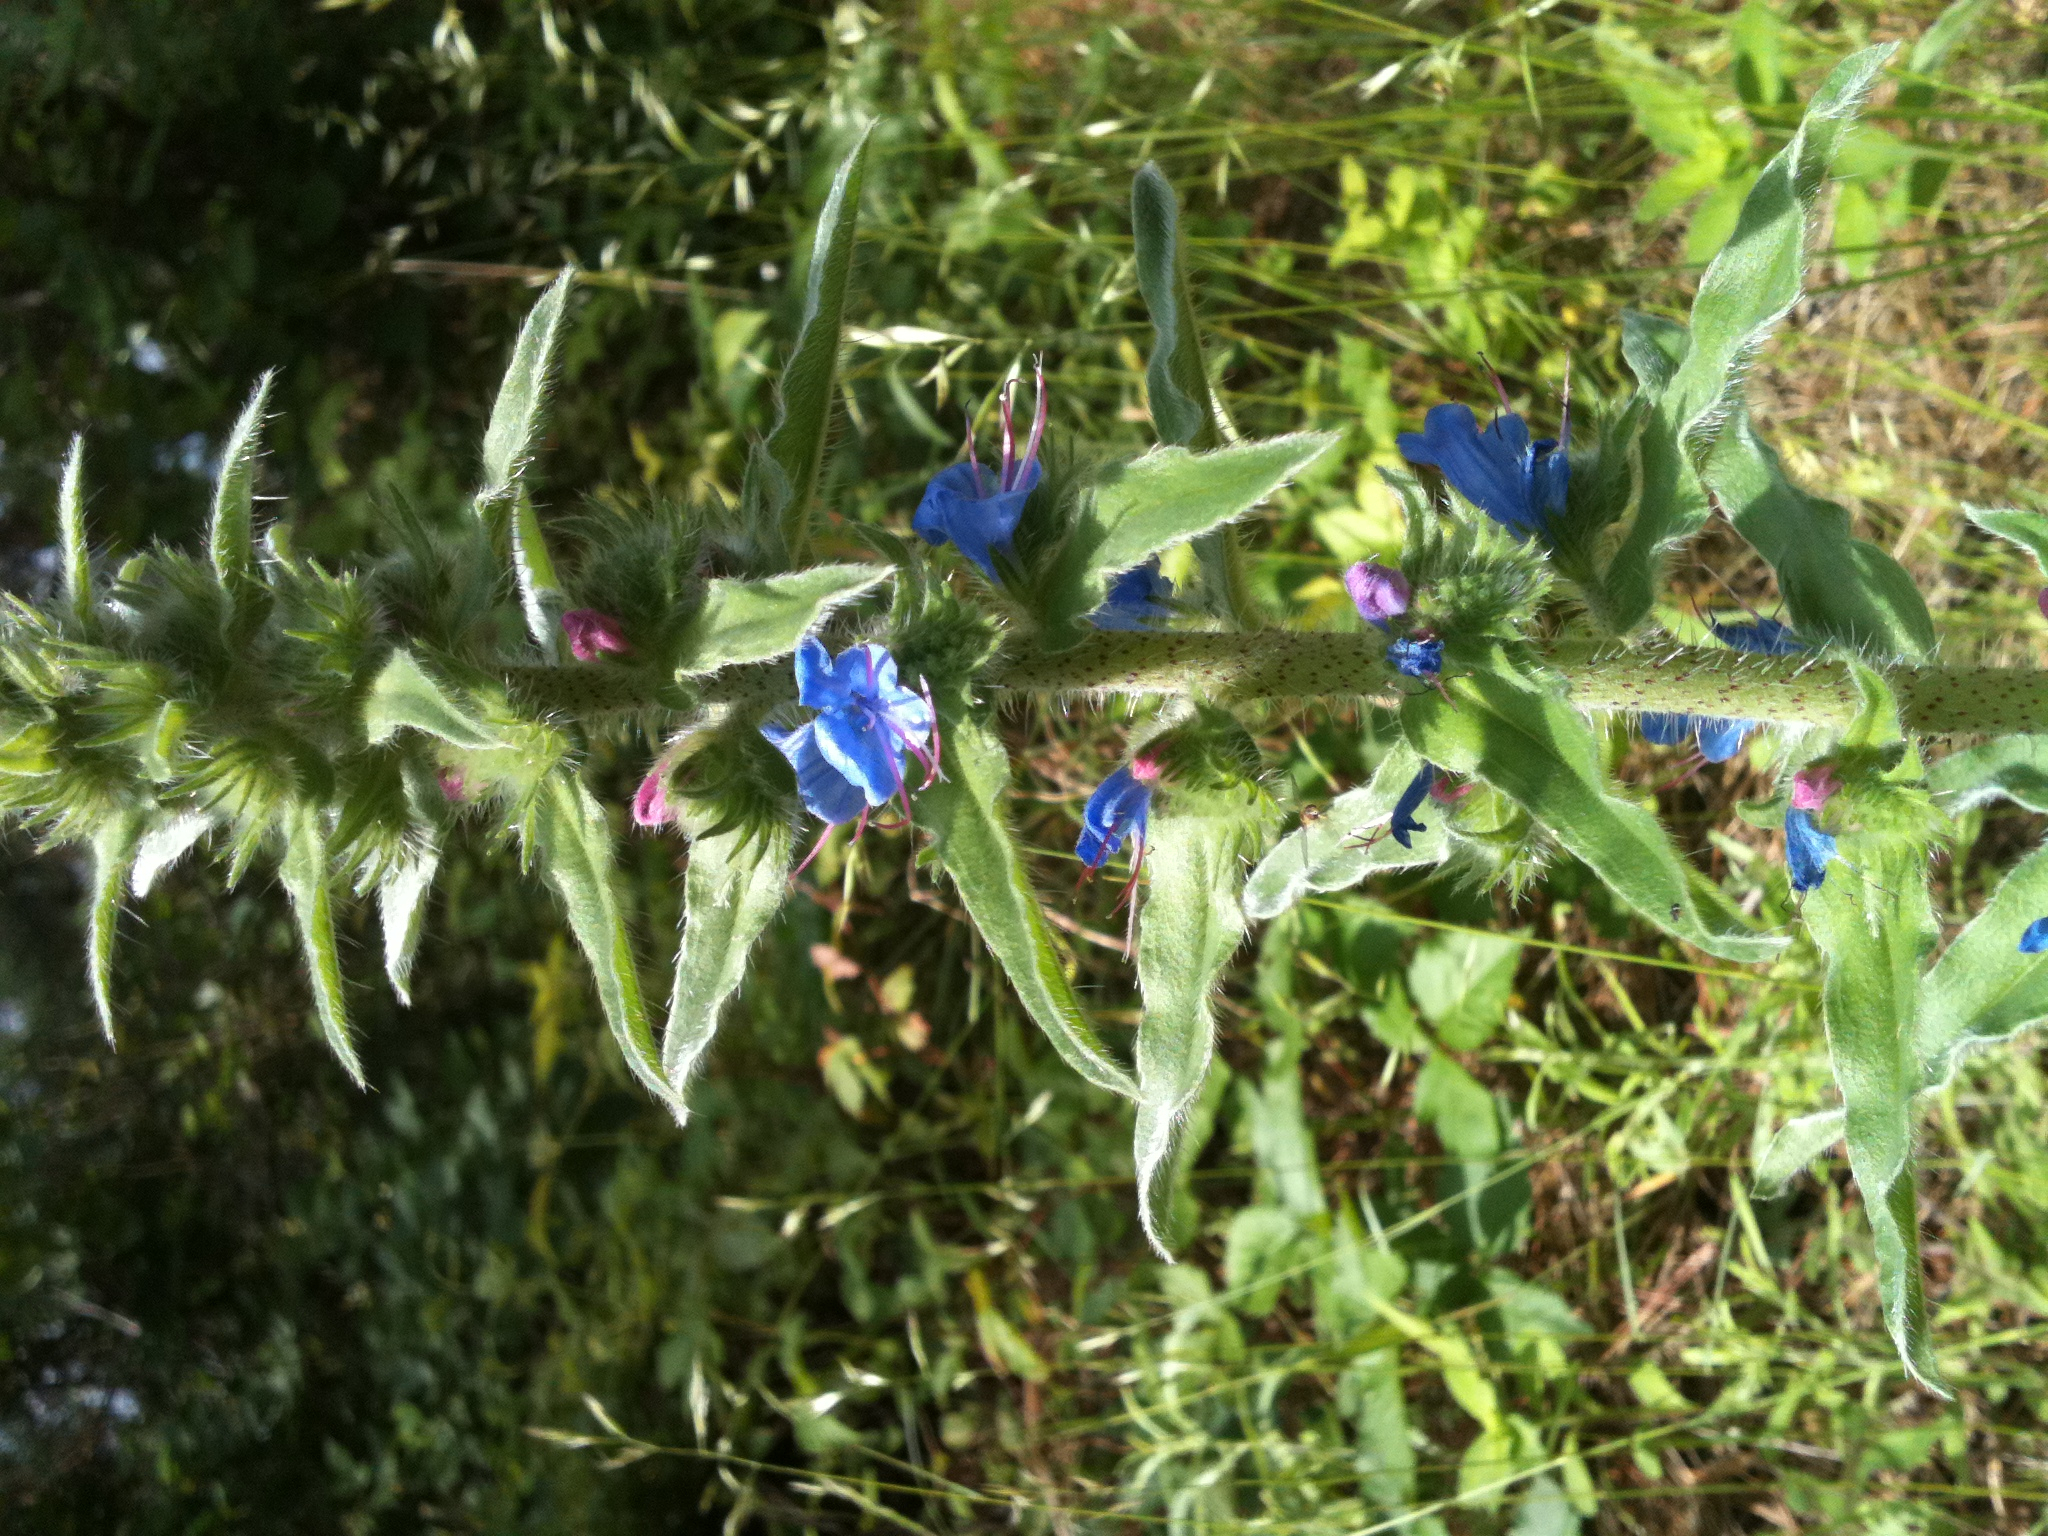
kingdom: Plantae
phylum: Tracheophyta
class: Magnoliopsida
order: Boraginales
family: Boraginaceae
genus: Echium
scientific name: Echium vulgare
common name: Common viper's bugloss
